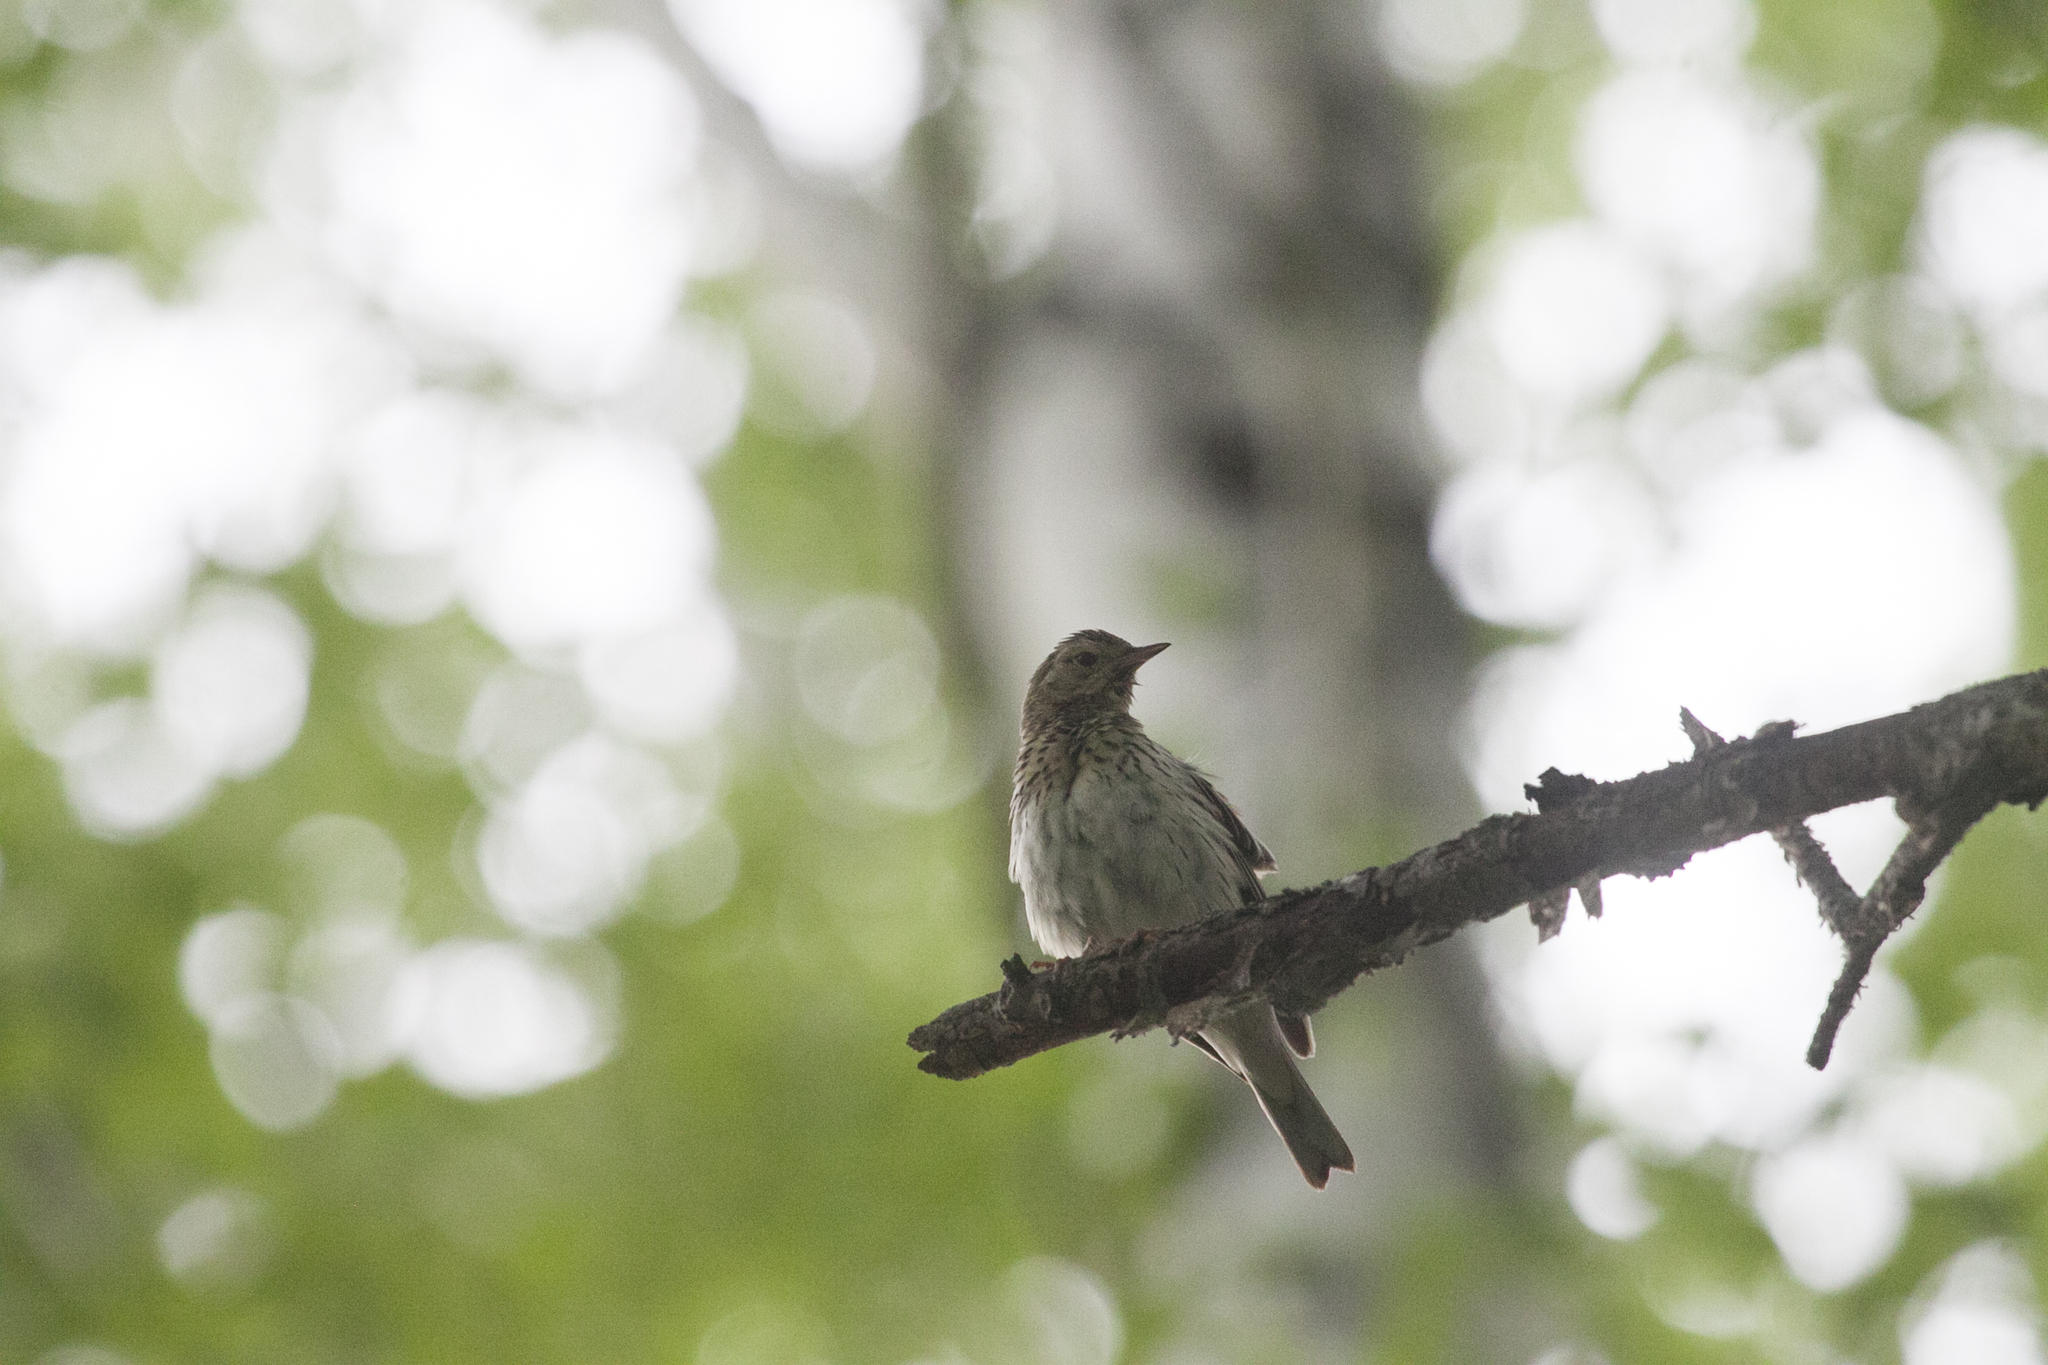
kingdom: Animalia
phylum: Chordata
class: Aves
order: Passeriformes
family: Motacillidae
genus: Anthus
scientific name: Anthus trivialis
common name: Tree pipit
